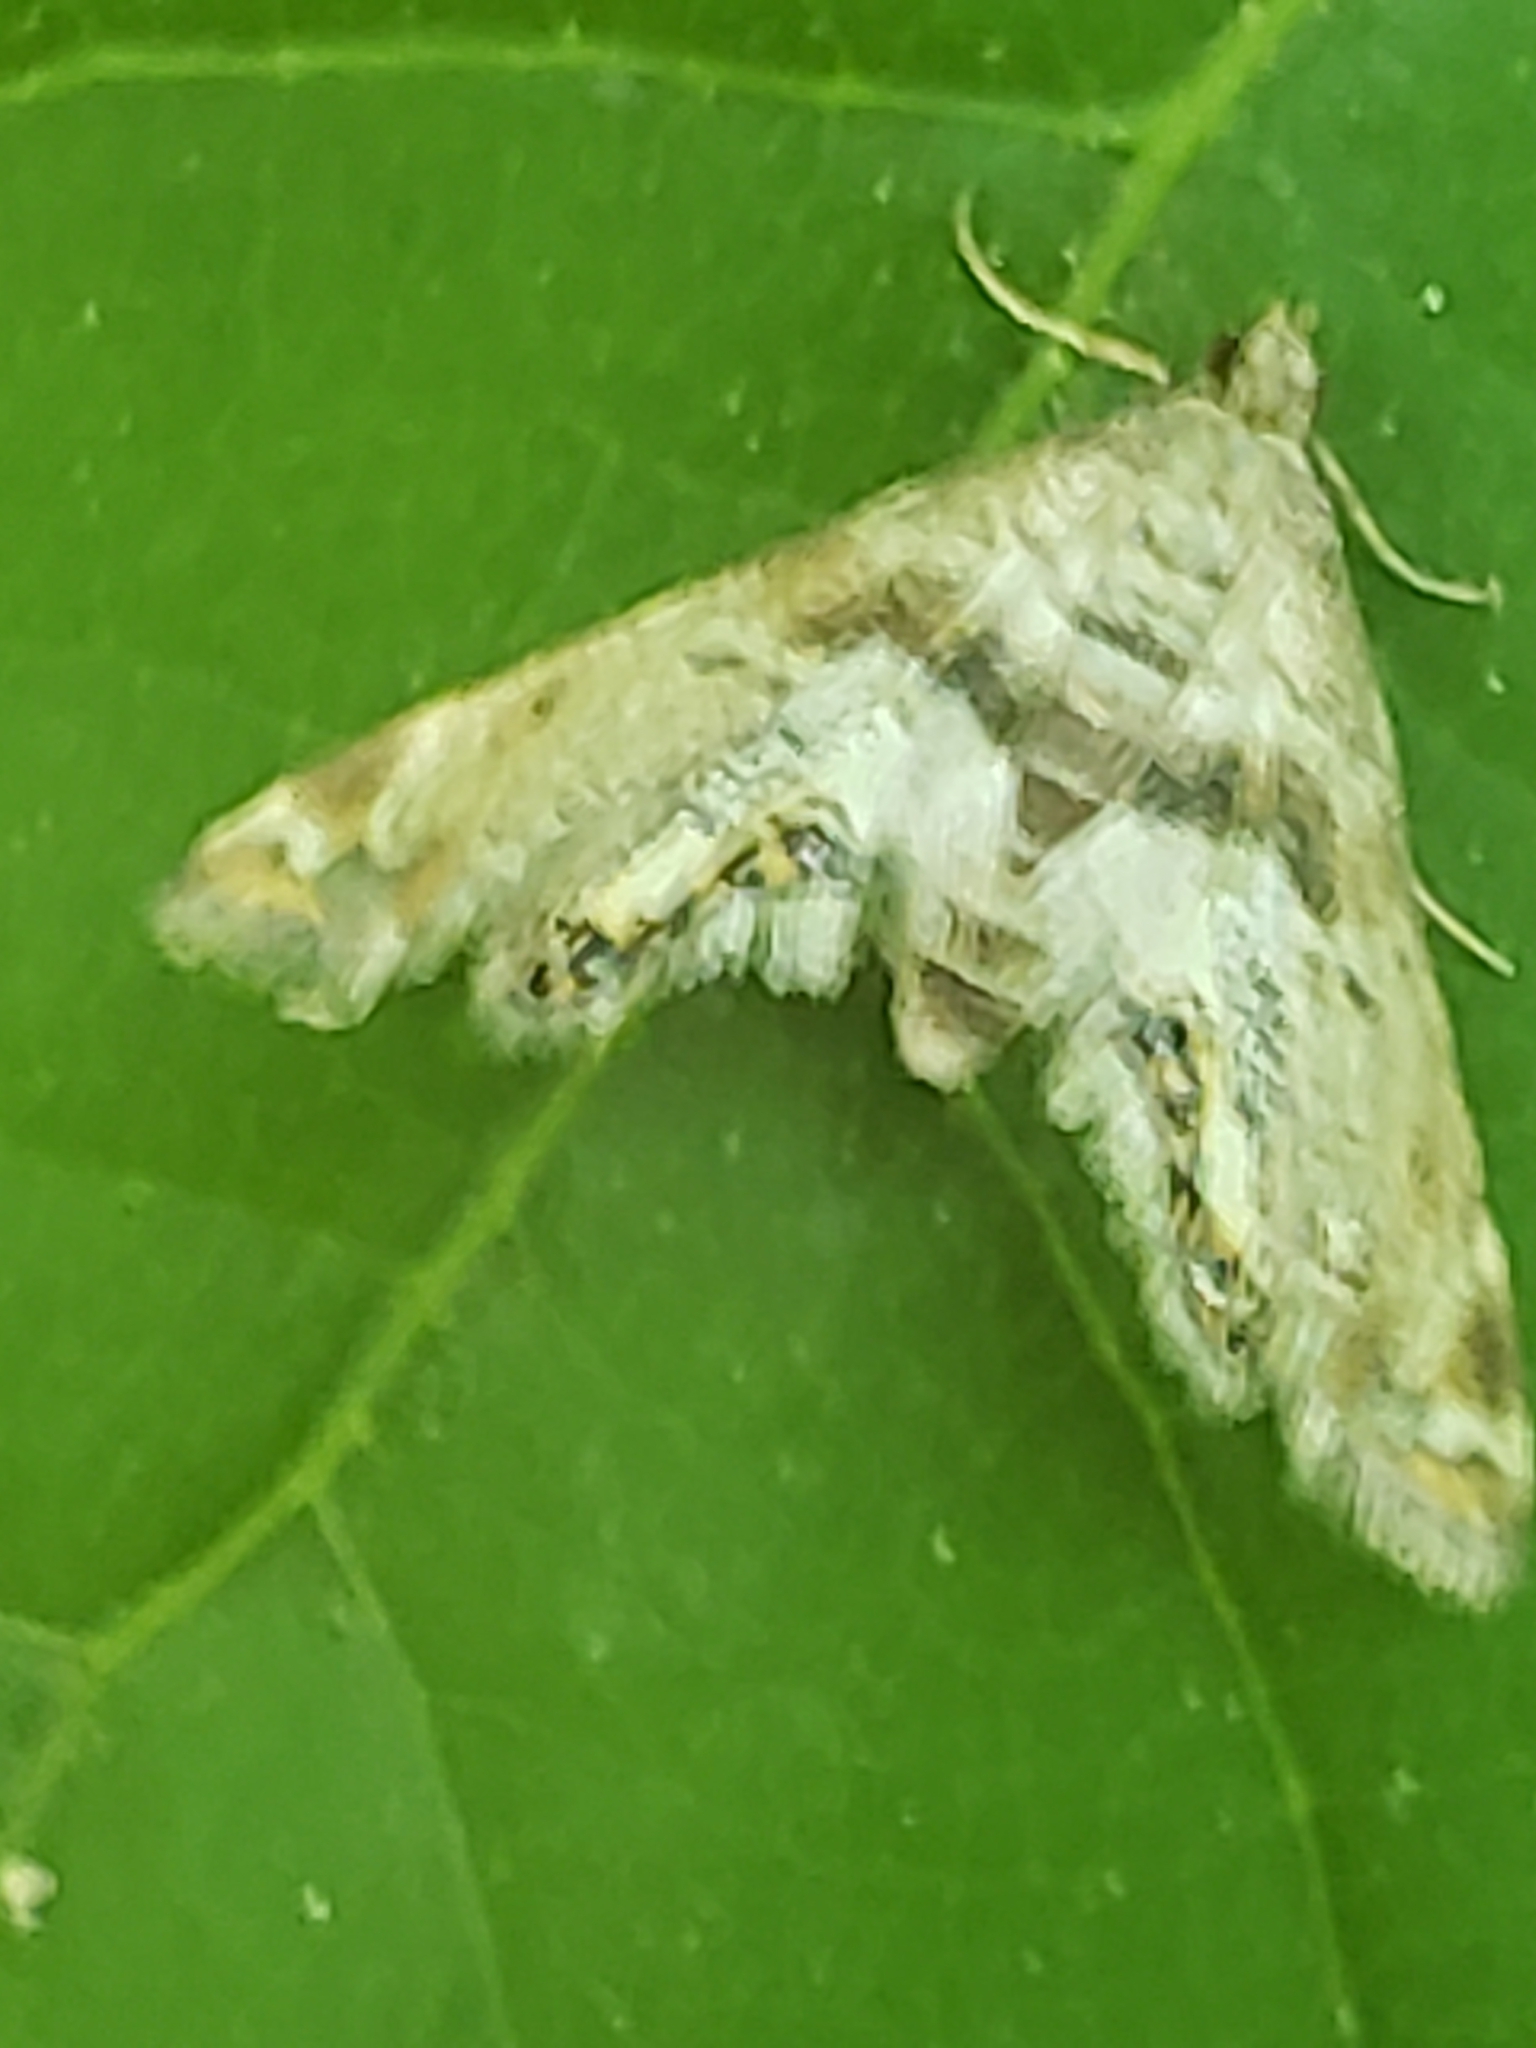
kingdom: Animalia
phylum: Arthropoda
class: Insecta
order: Lepidoptera
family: Crambidae
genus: Petrophila
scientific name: Petrophila fulicalis
